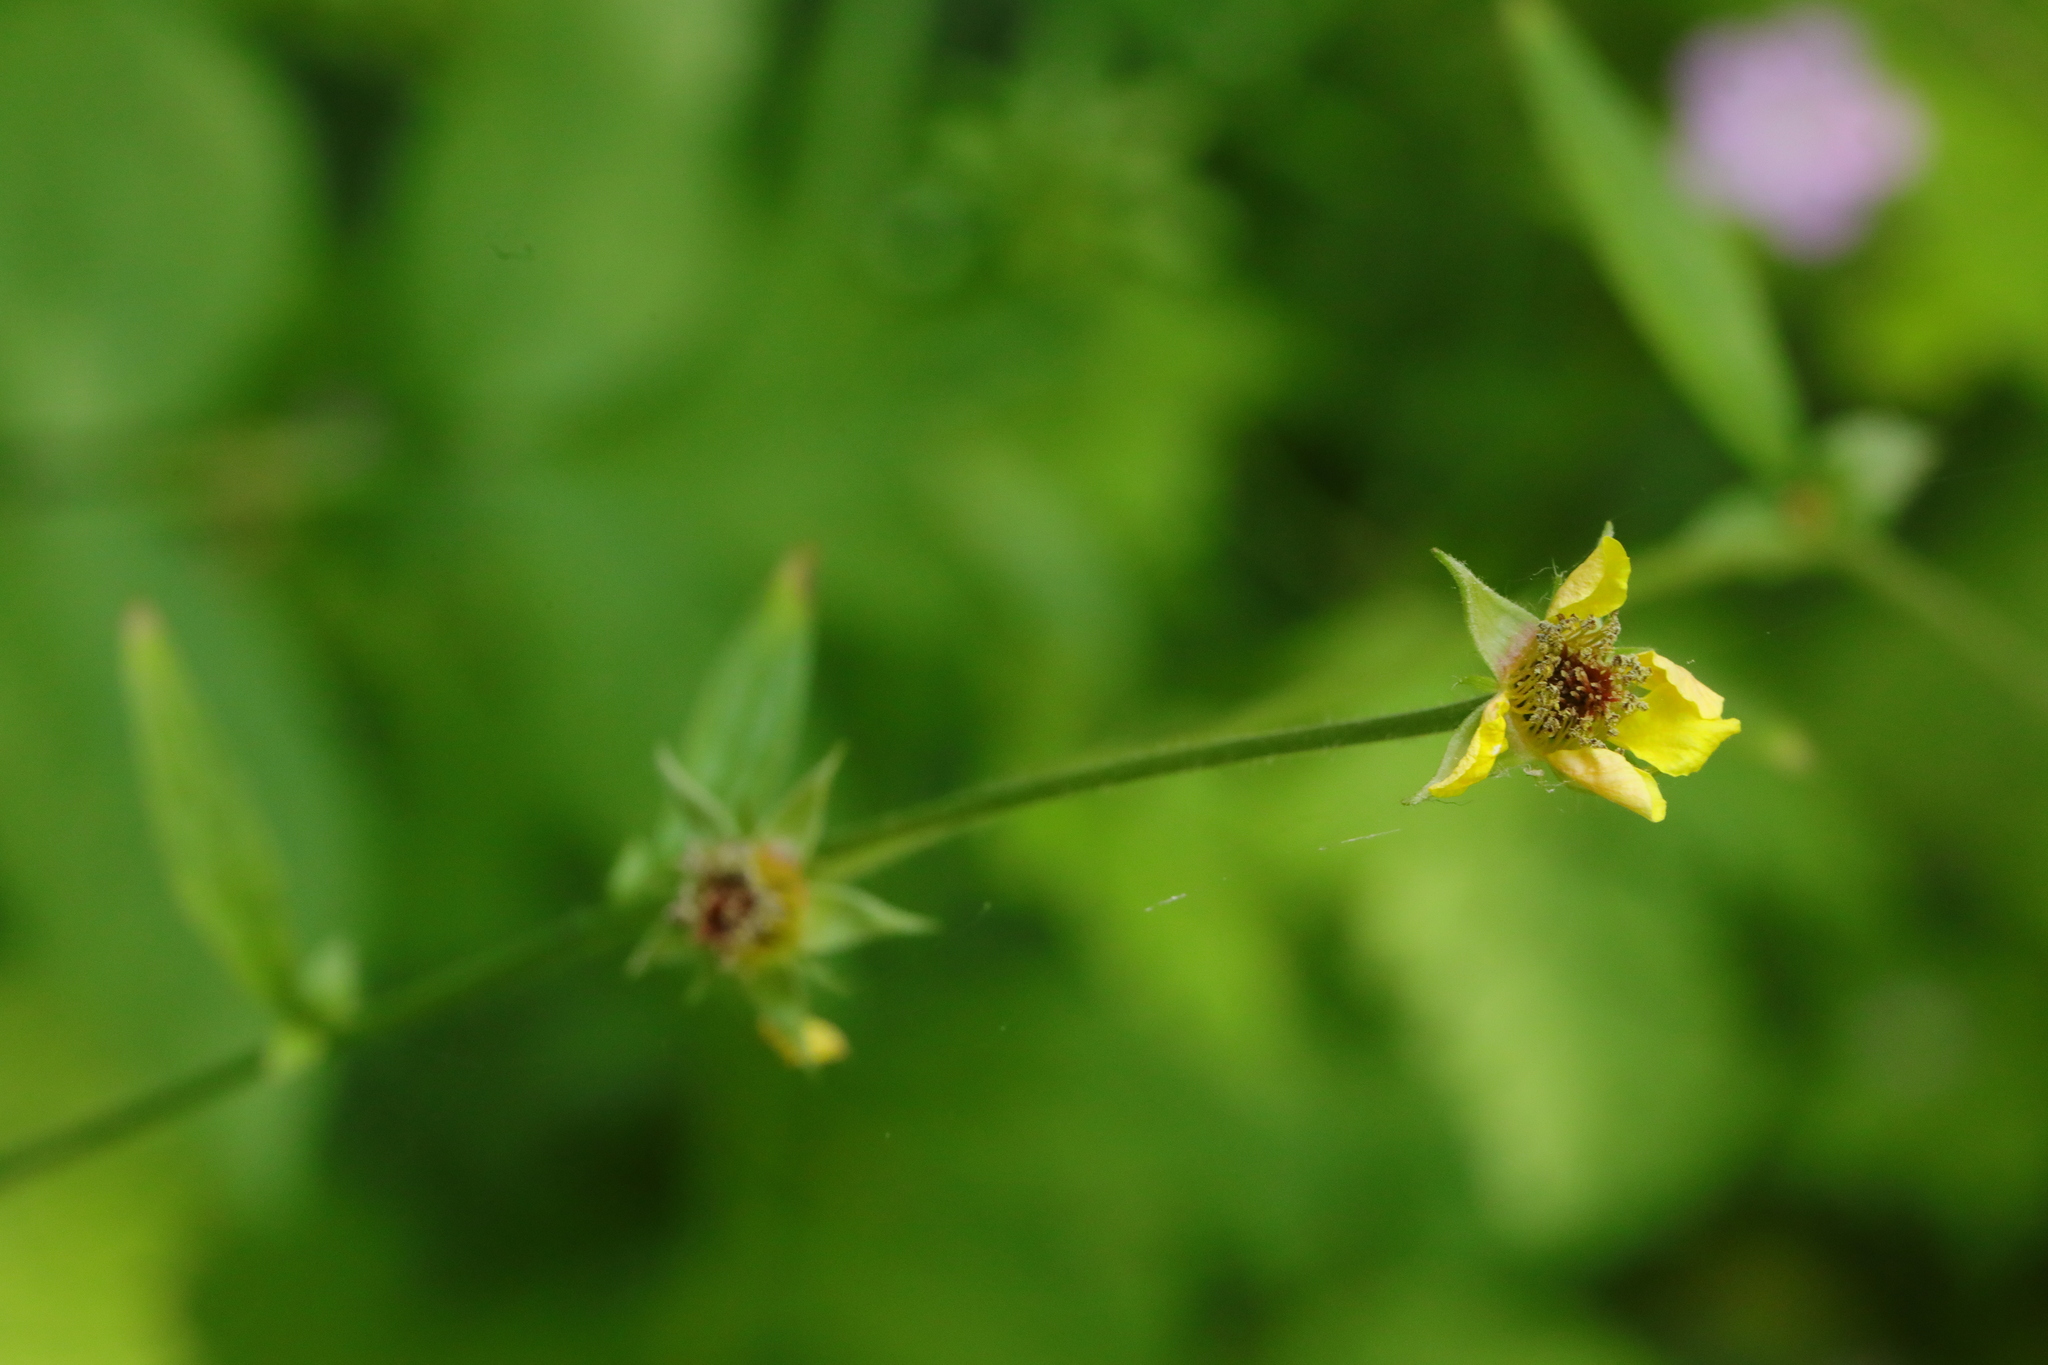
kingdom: Plantae
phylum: Tracheophyta
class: Magnoliopsida
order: Rosales
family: Rosaceae
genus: Geum
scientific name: Geum urbanum
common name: Wood avens
